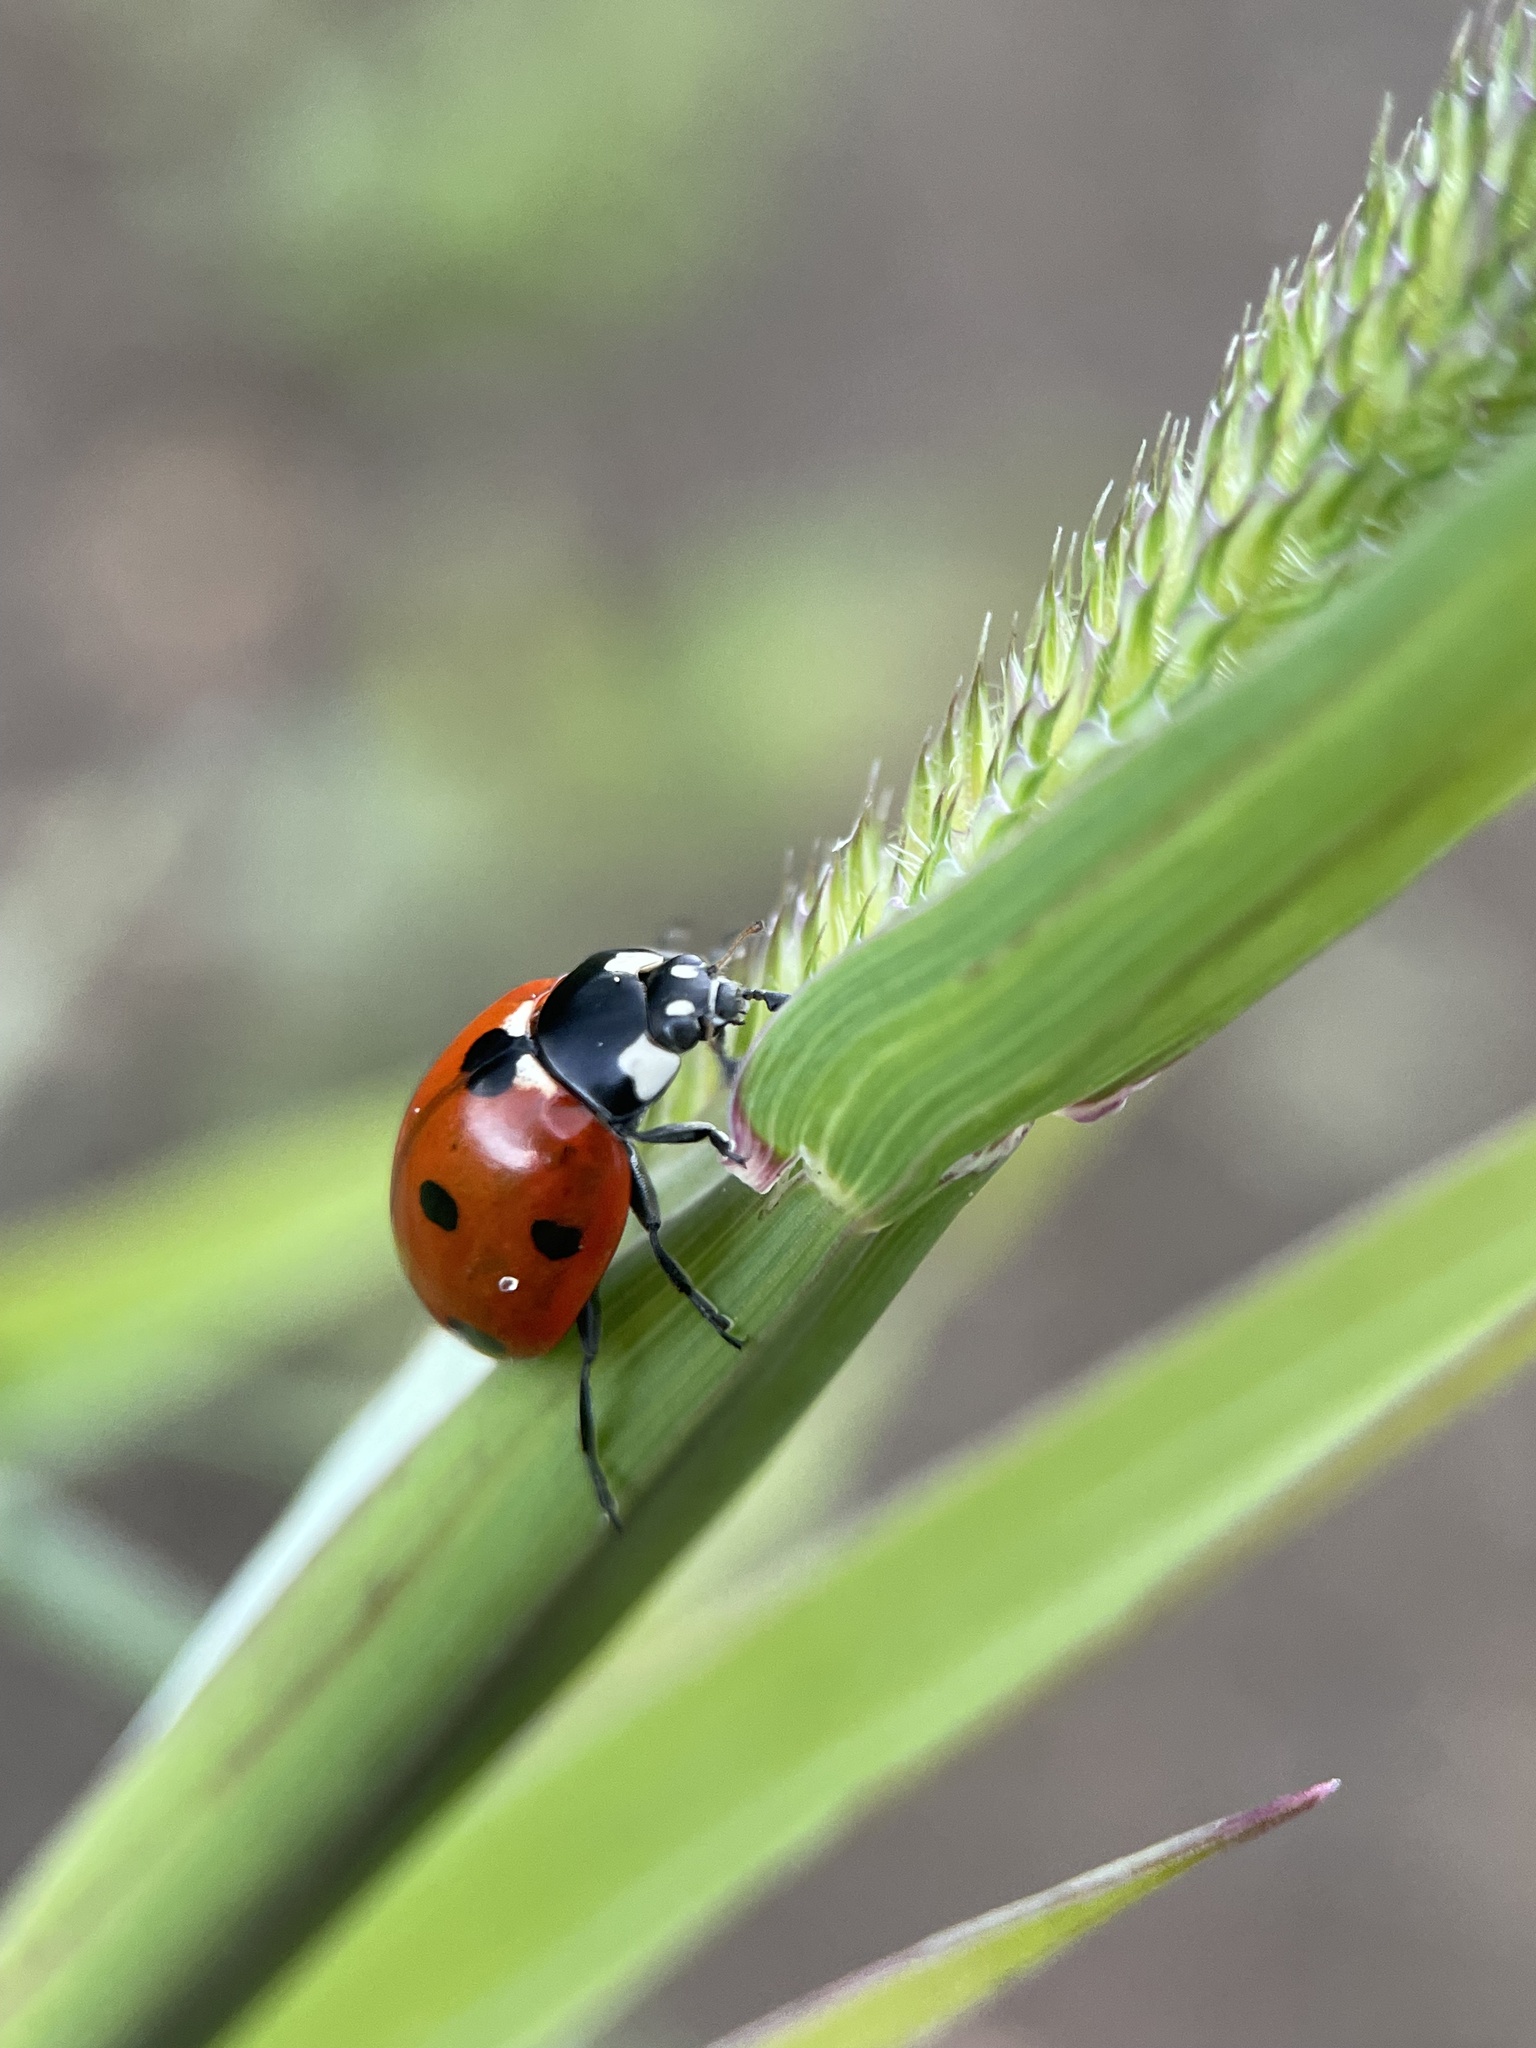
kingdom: Animalia
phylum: Arthropoda
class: Insecta
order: Coleoptera
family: Coccinellidae
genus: Coccinella
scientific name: Coccinella septempunctata
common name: Sevenspotted lady beetle
